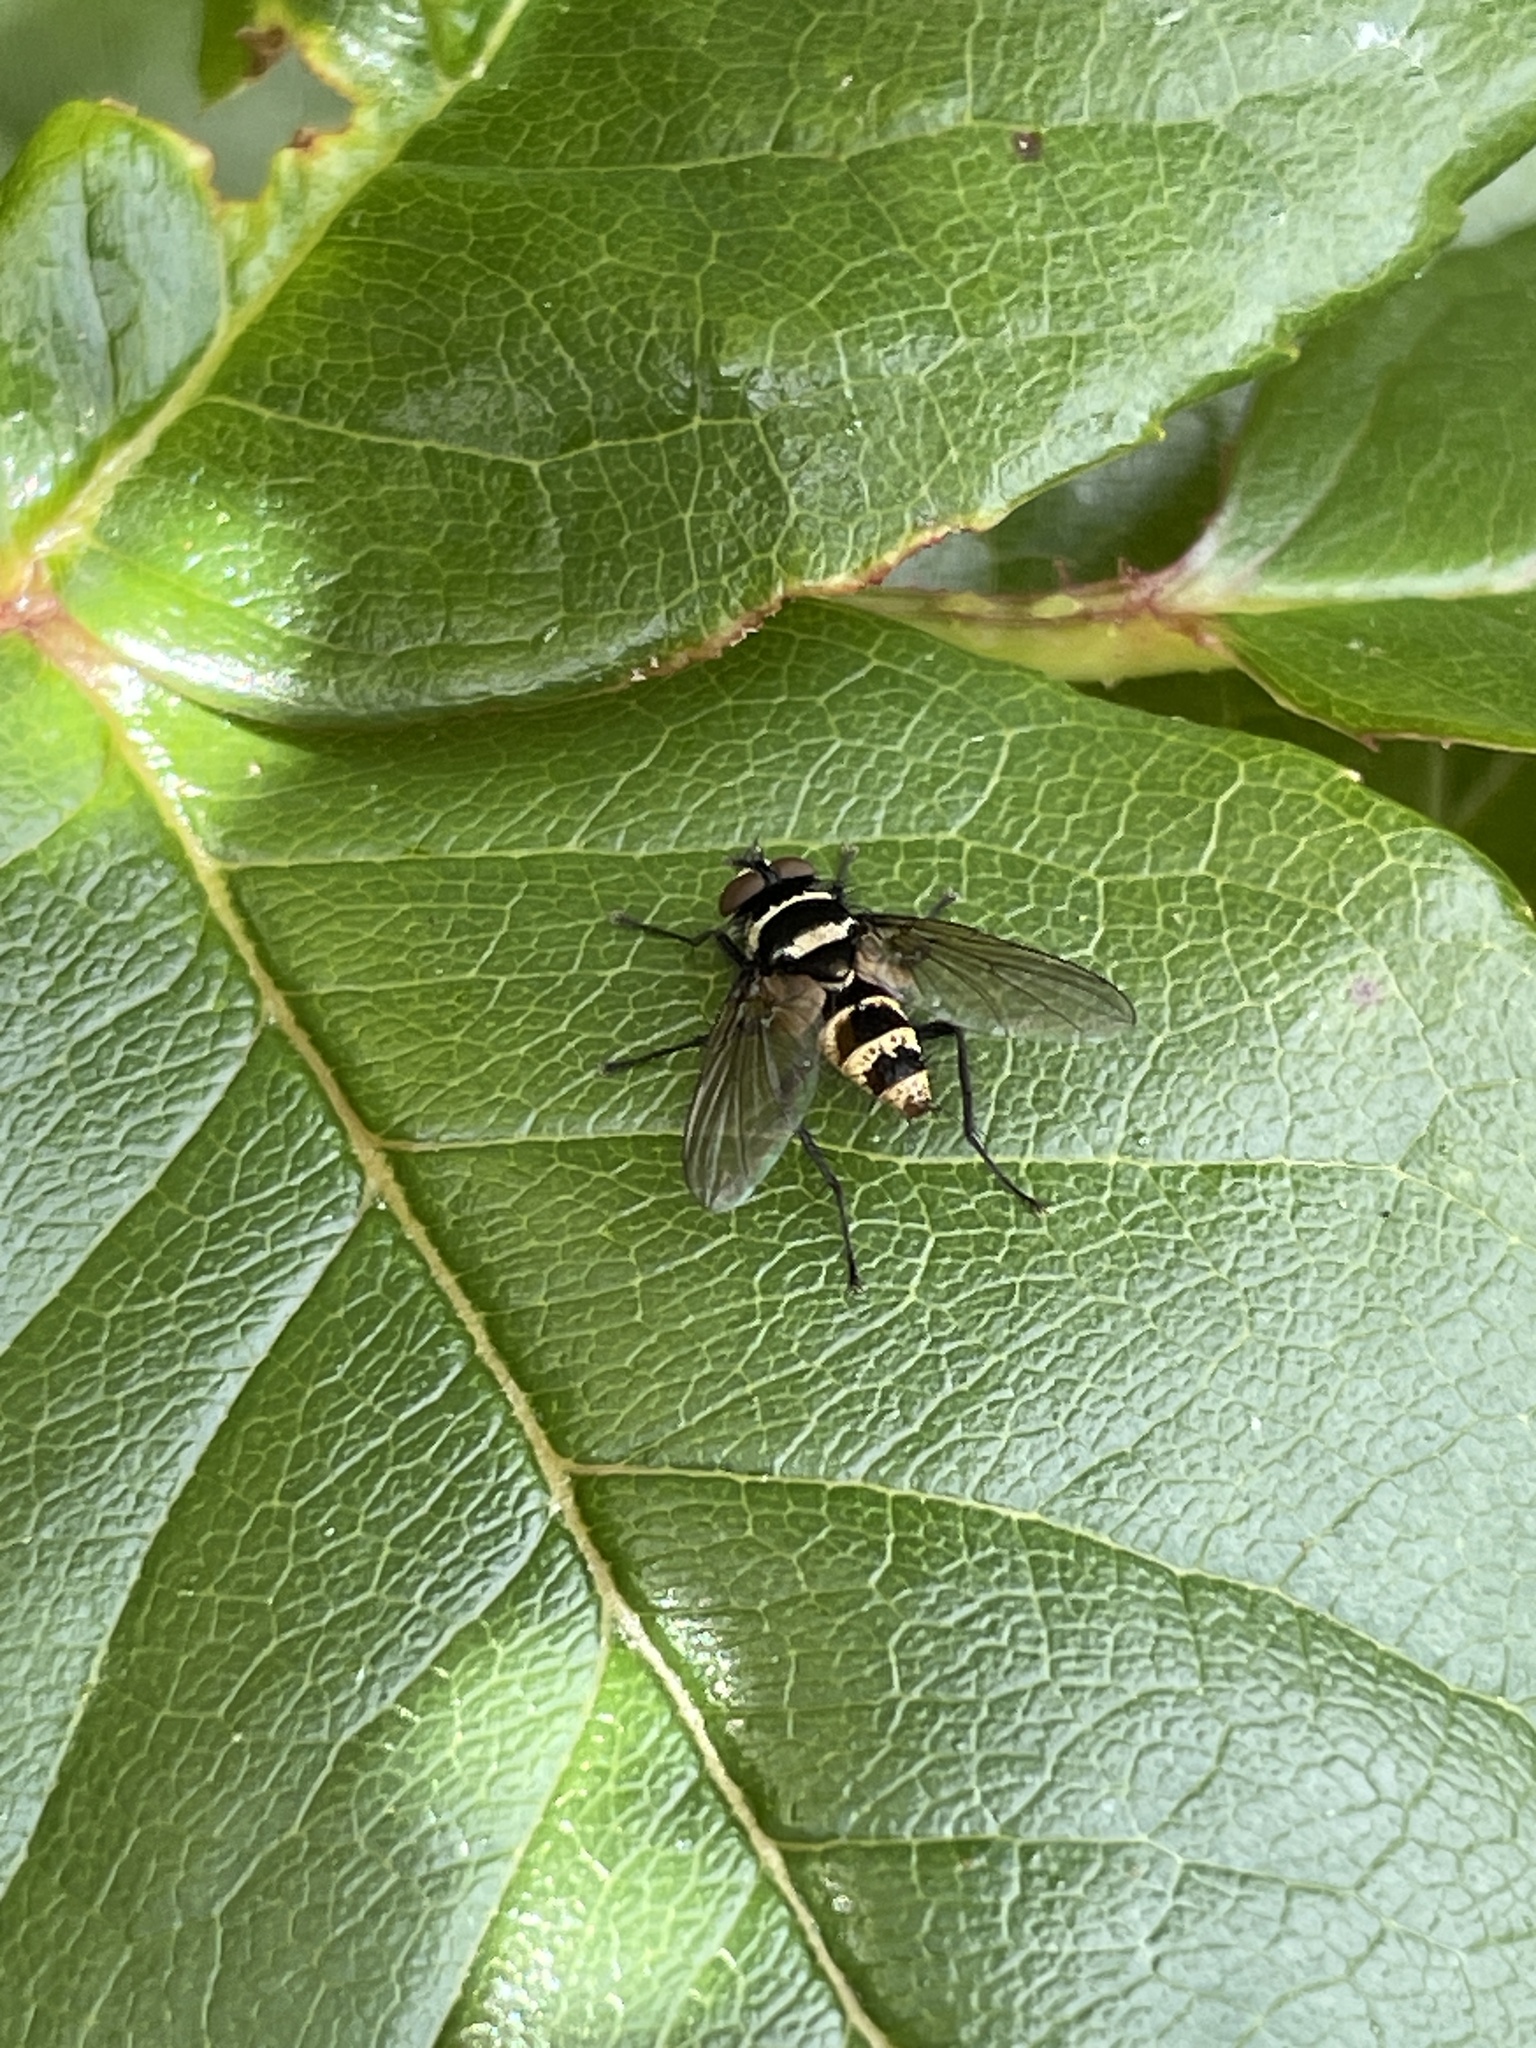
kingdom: Animalia
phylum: Arthropoda
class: Insecta
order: Diptera
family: Tachinidae
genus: Trigonospila
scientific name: Trigonospila brevifacies
